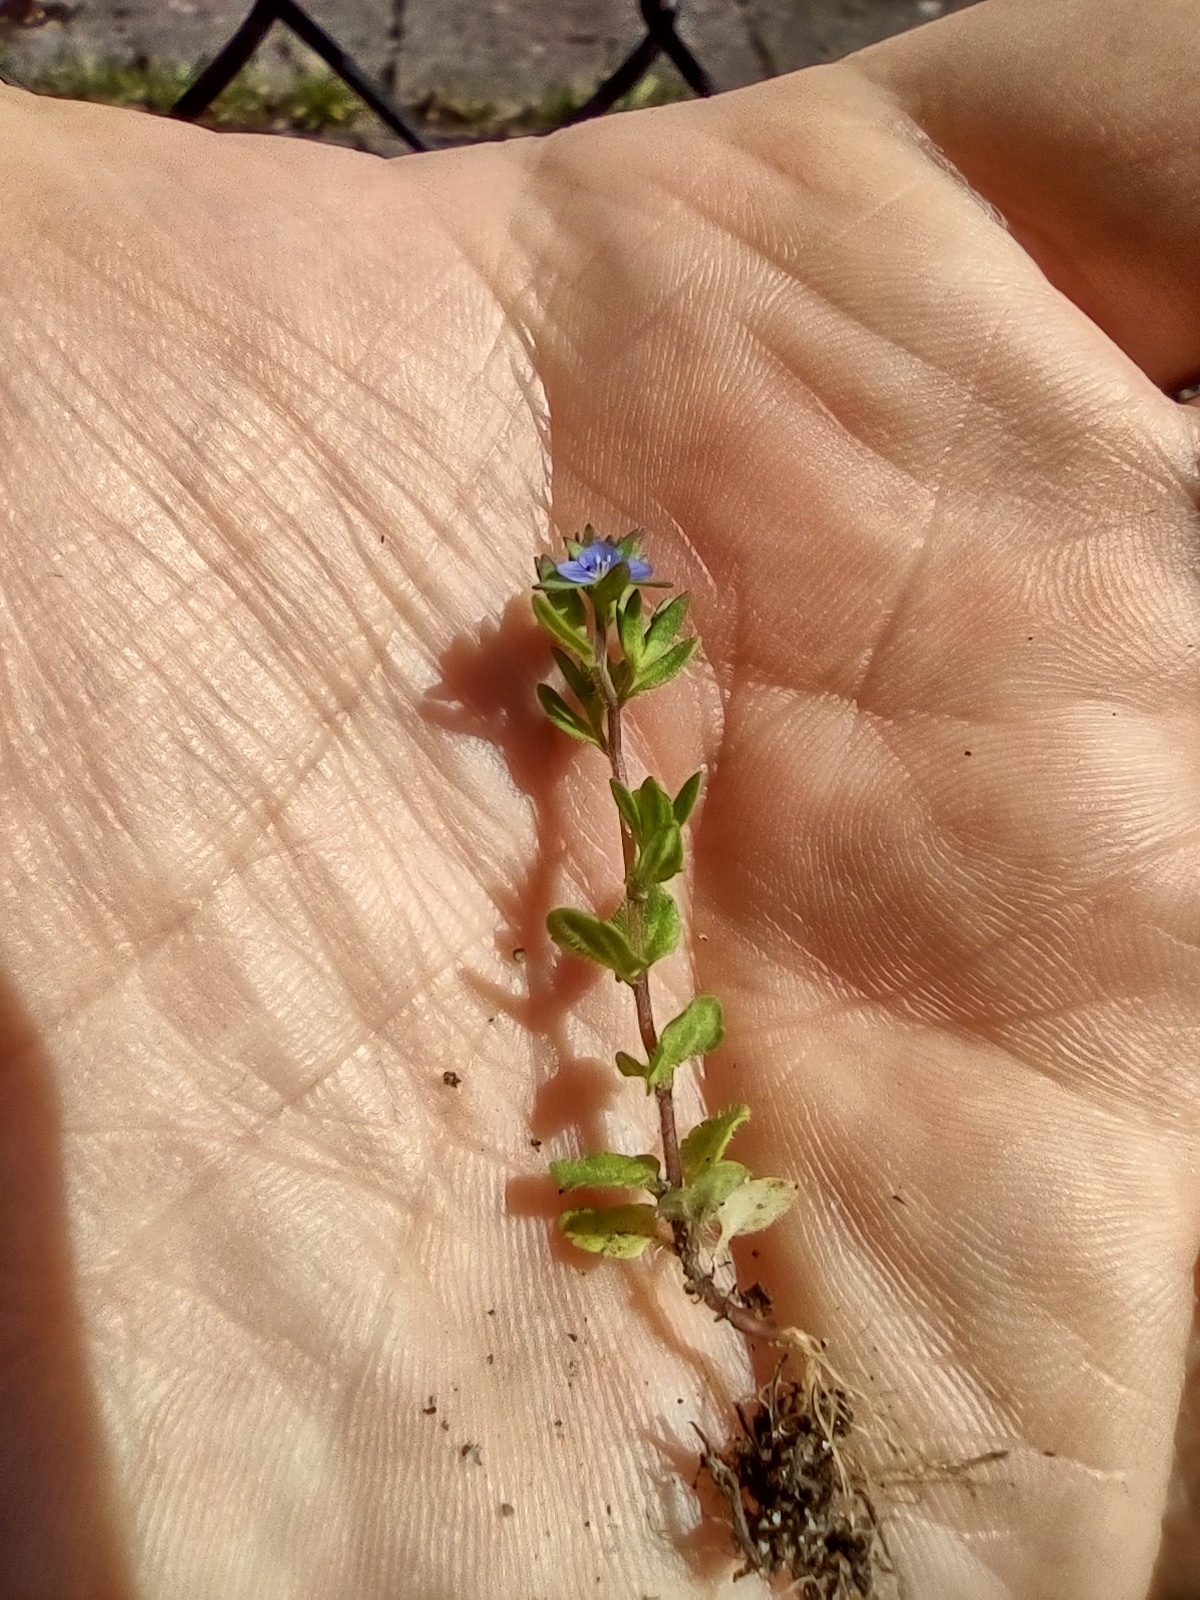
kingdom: Plantae
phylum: Tracheophyta
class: Magnoliopsida
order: Lamiales
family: Plantaginaceae
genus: Veronica
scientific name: Veronica arvensis
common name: Corn speedwell
